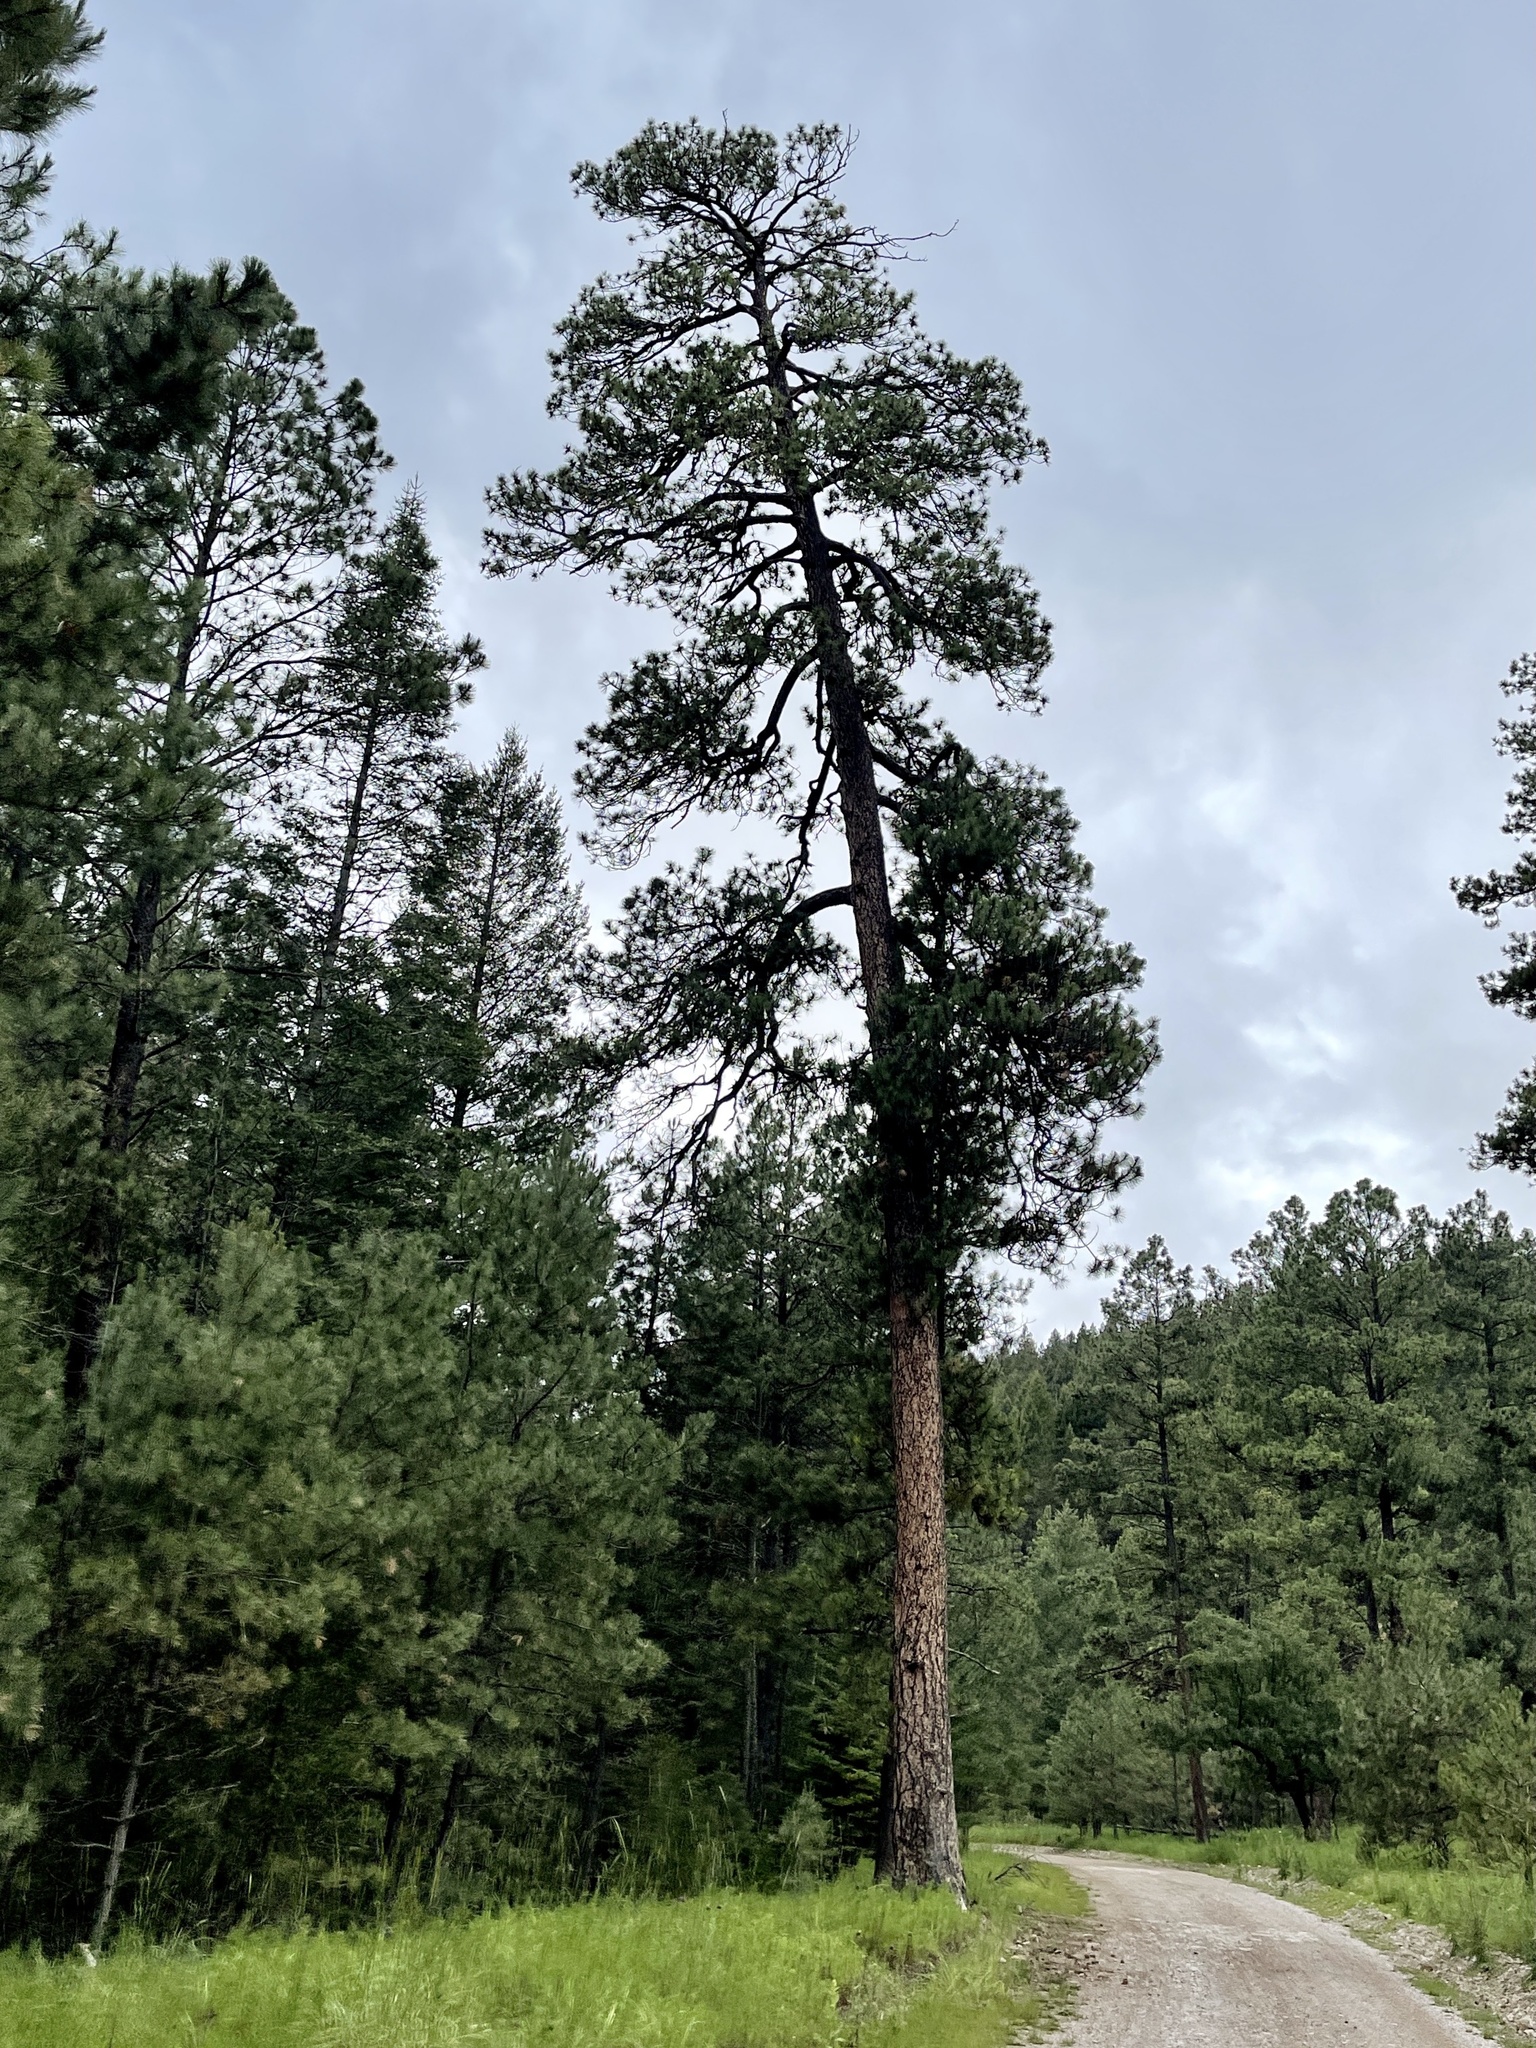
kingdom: Plantae
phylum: Tracheophyta
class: Pinopsida
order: Pinales
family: Pinaceae
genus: Pinus
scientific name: Pinus ponderosa
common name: Western yellow-pine
